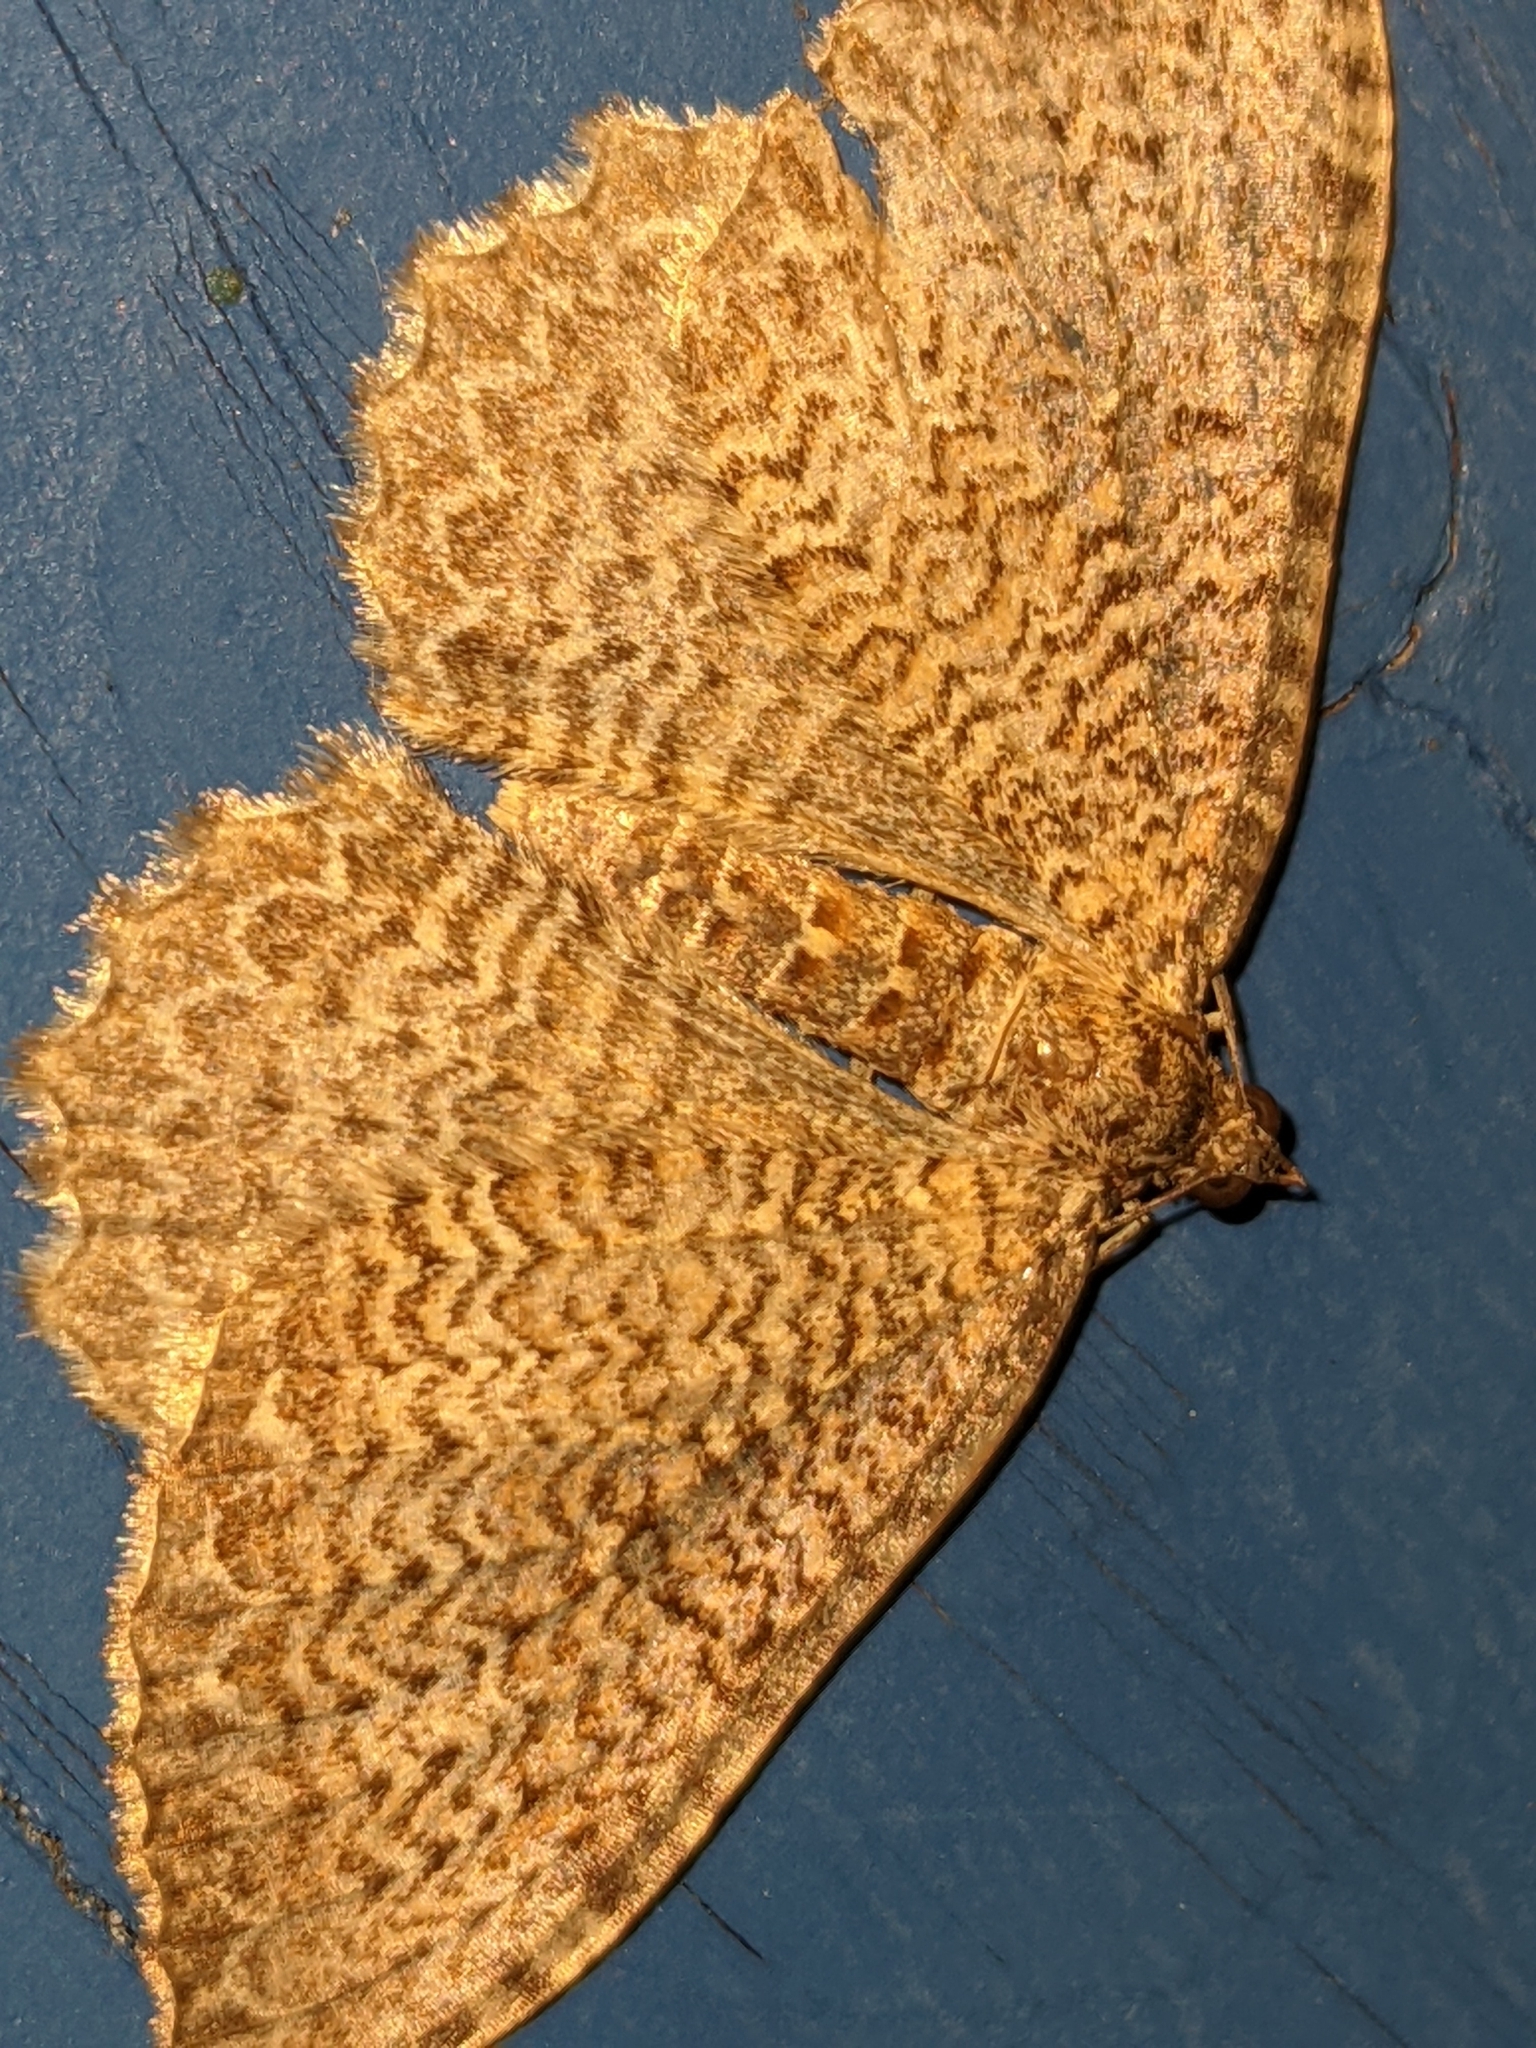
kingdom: Animalia
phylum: Arthropoda
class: Insecta
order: Lepidoptera
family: Geometridae
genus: Rheumaptera
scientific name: Rheumaptera
